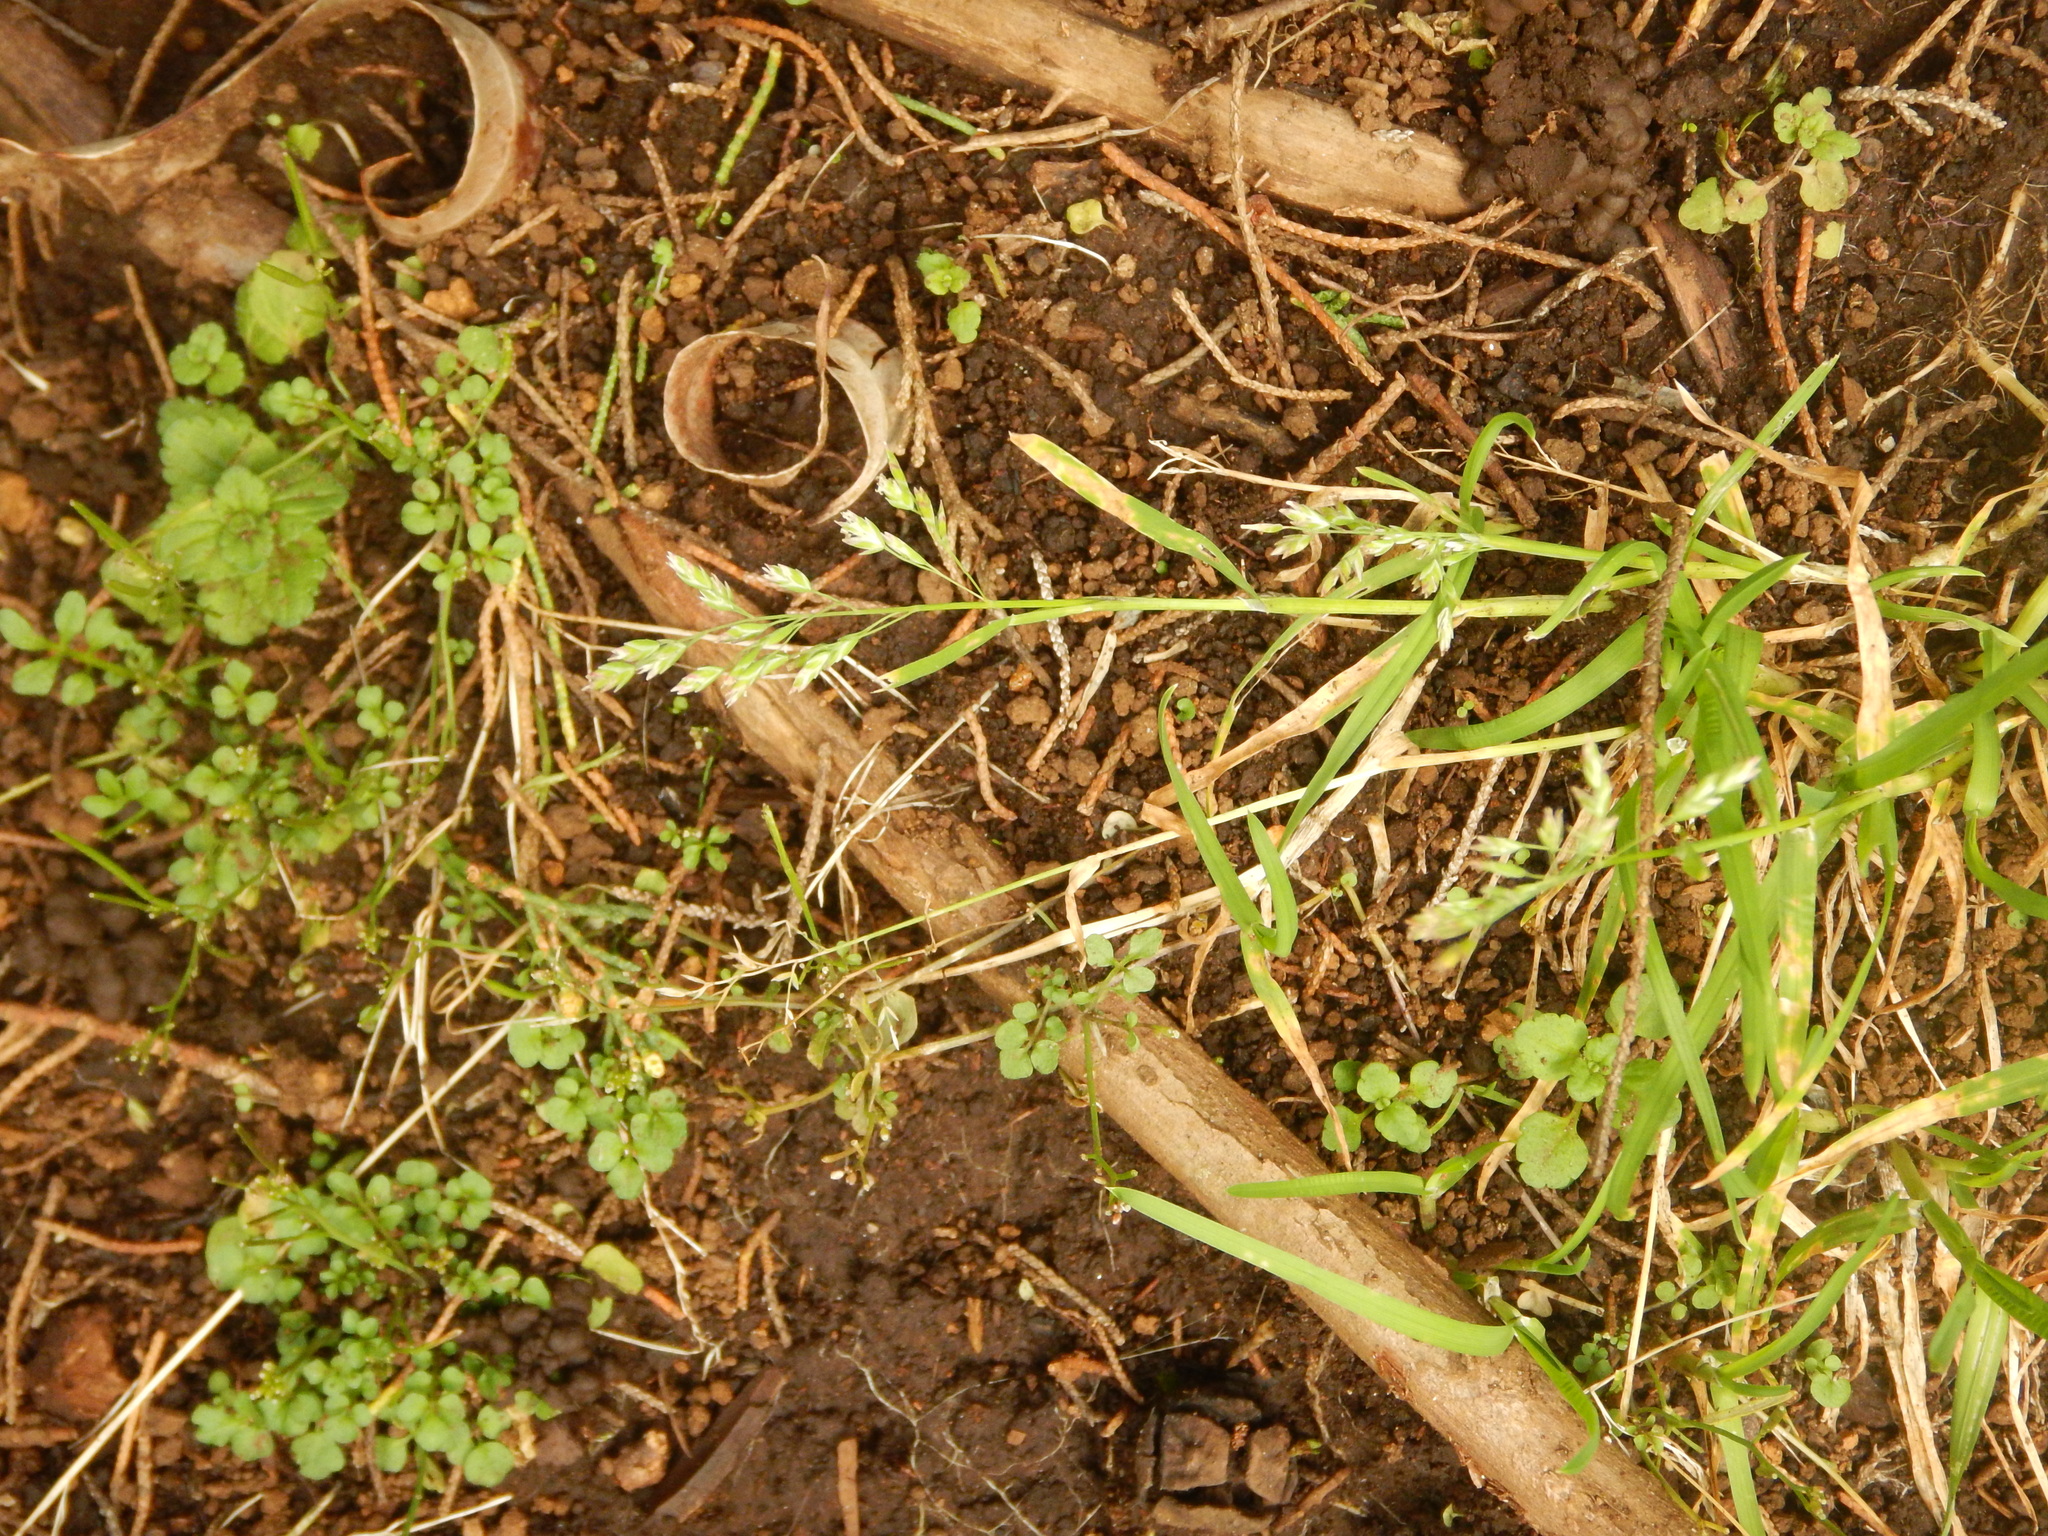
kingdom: Plantae
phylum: Tracheophyta
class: Liliopsida
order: Poales
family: Poaceae
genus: Poa
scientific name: Poa annua
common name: Annual bluegrass
